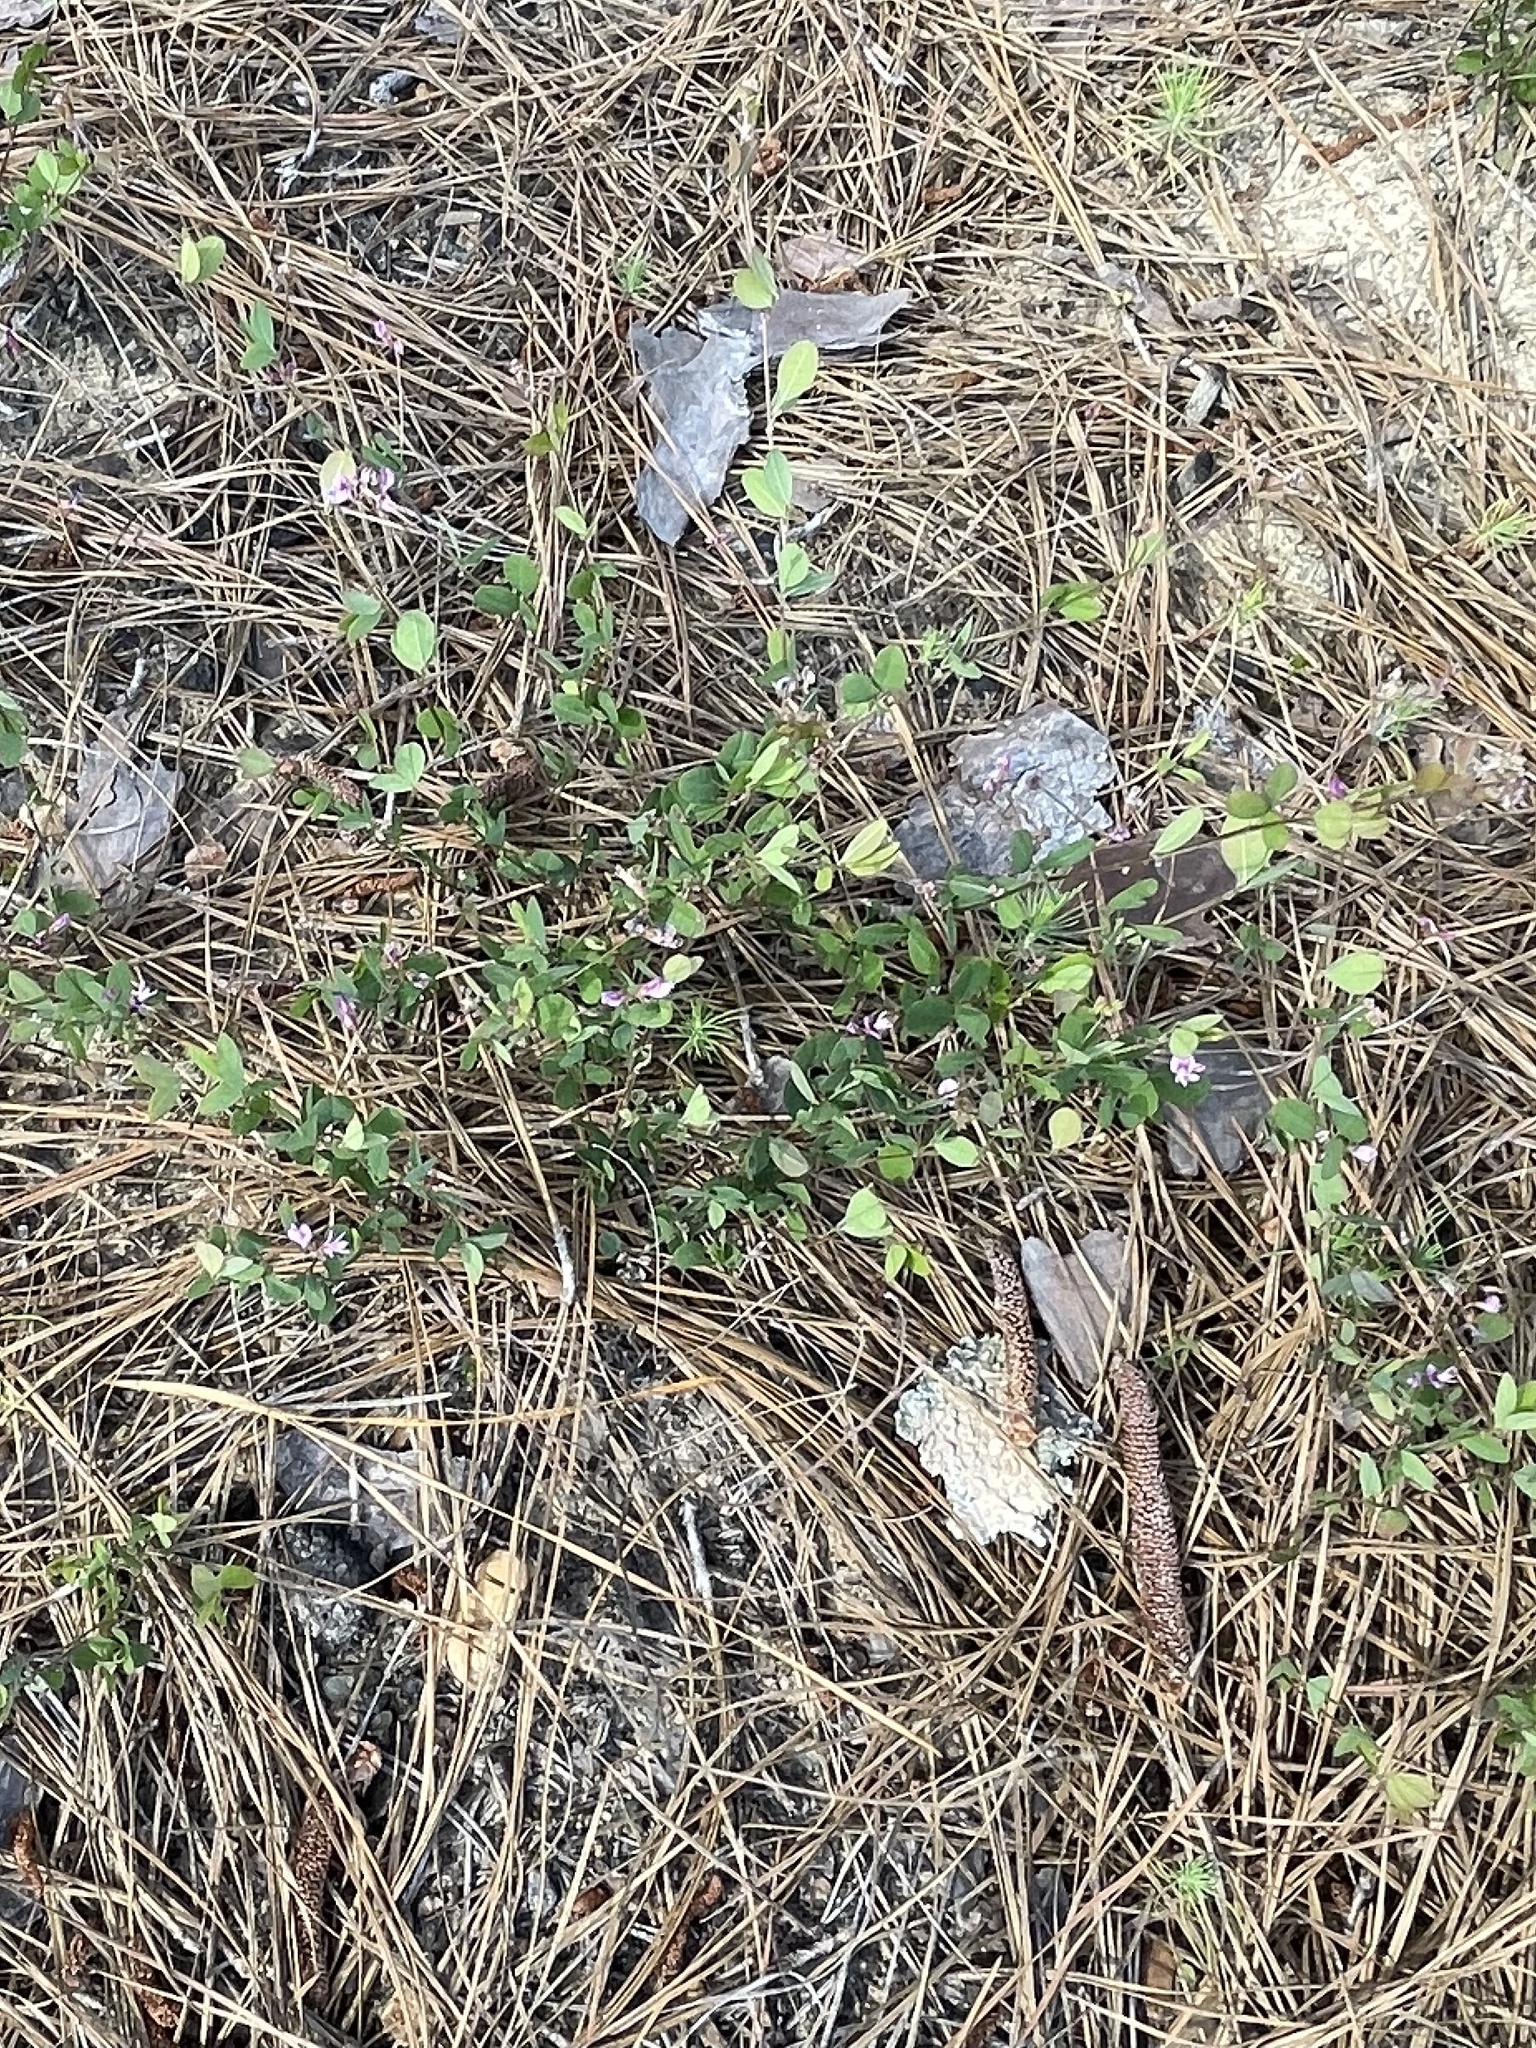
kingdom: Plantae
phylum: Tracheophyta
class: Magnoliopsida
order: Fabales
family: Fabaceae
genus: Lespedeza
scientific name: Lespedeza repens
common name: Creeping bush-clover
